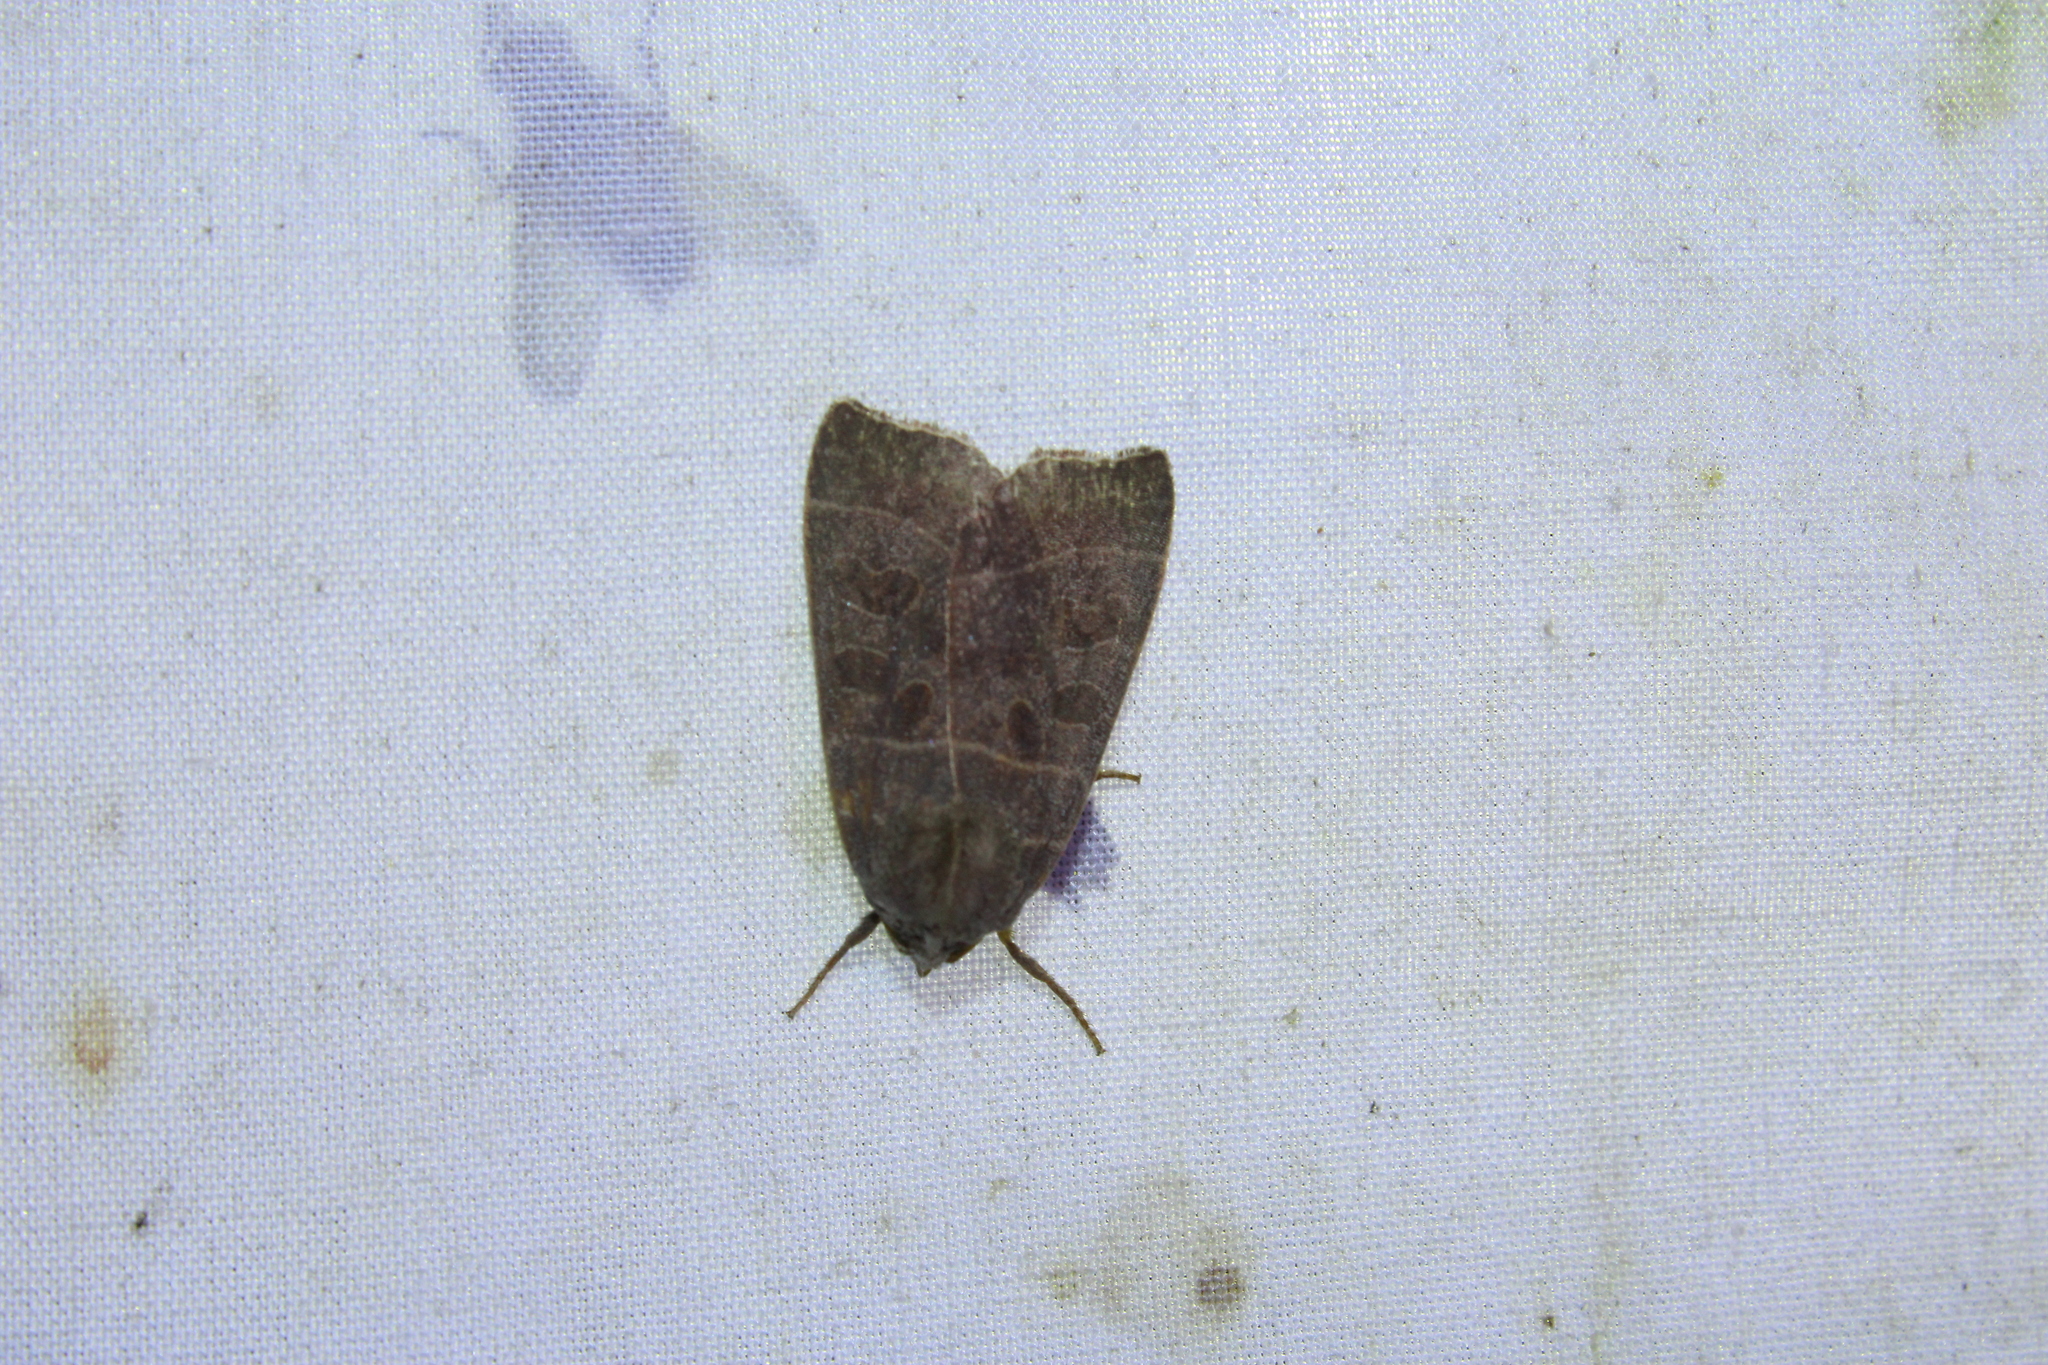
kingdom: Animalia
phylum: Arthropoda
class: Insecta
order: Lepidoptera
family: Noctuidae
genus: Ipimorpha
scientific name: Ipimorpha pleonectusa
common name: Even-lined sallow
